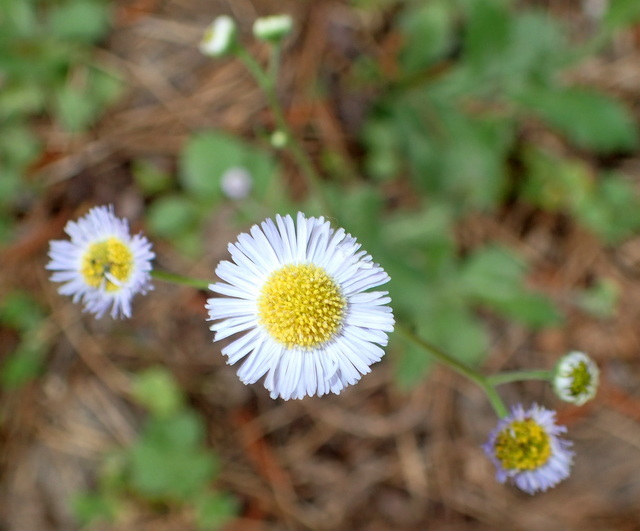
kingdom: Plantae
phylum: Tracheophyta
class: Magnoliopsida
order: Asterales
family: Asteraceae
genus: Erigeron
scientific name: Erigeron quercifolius
